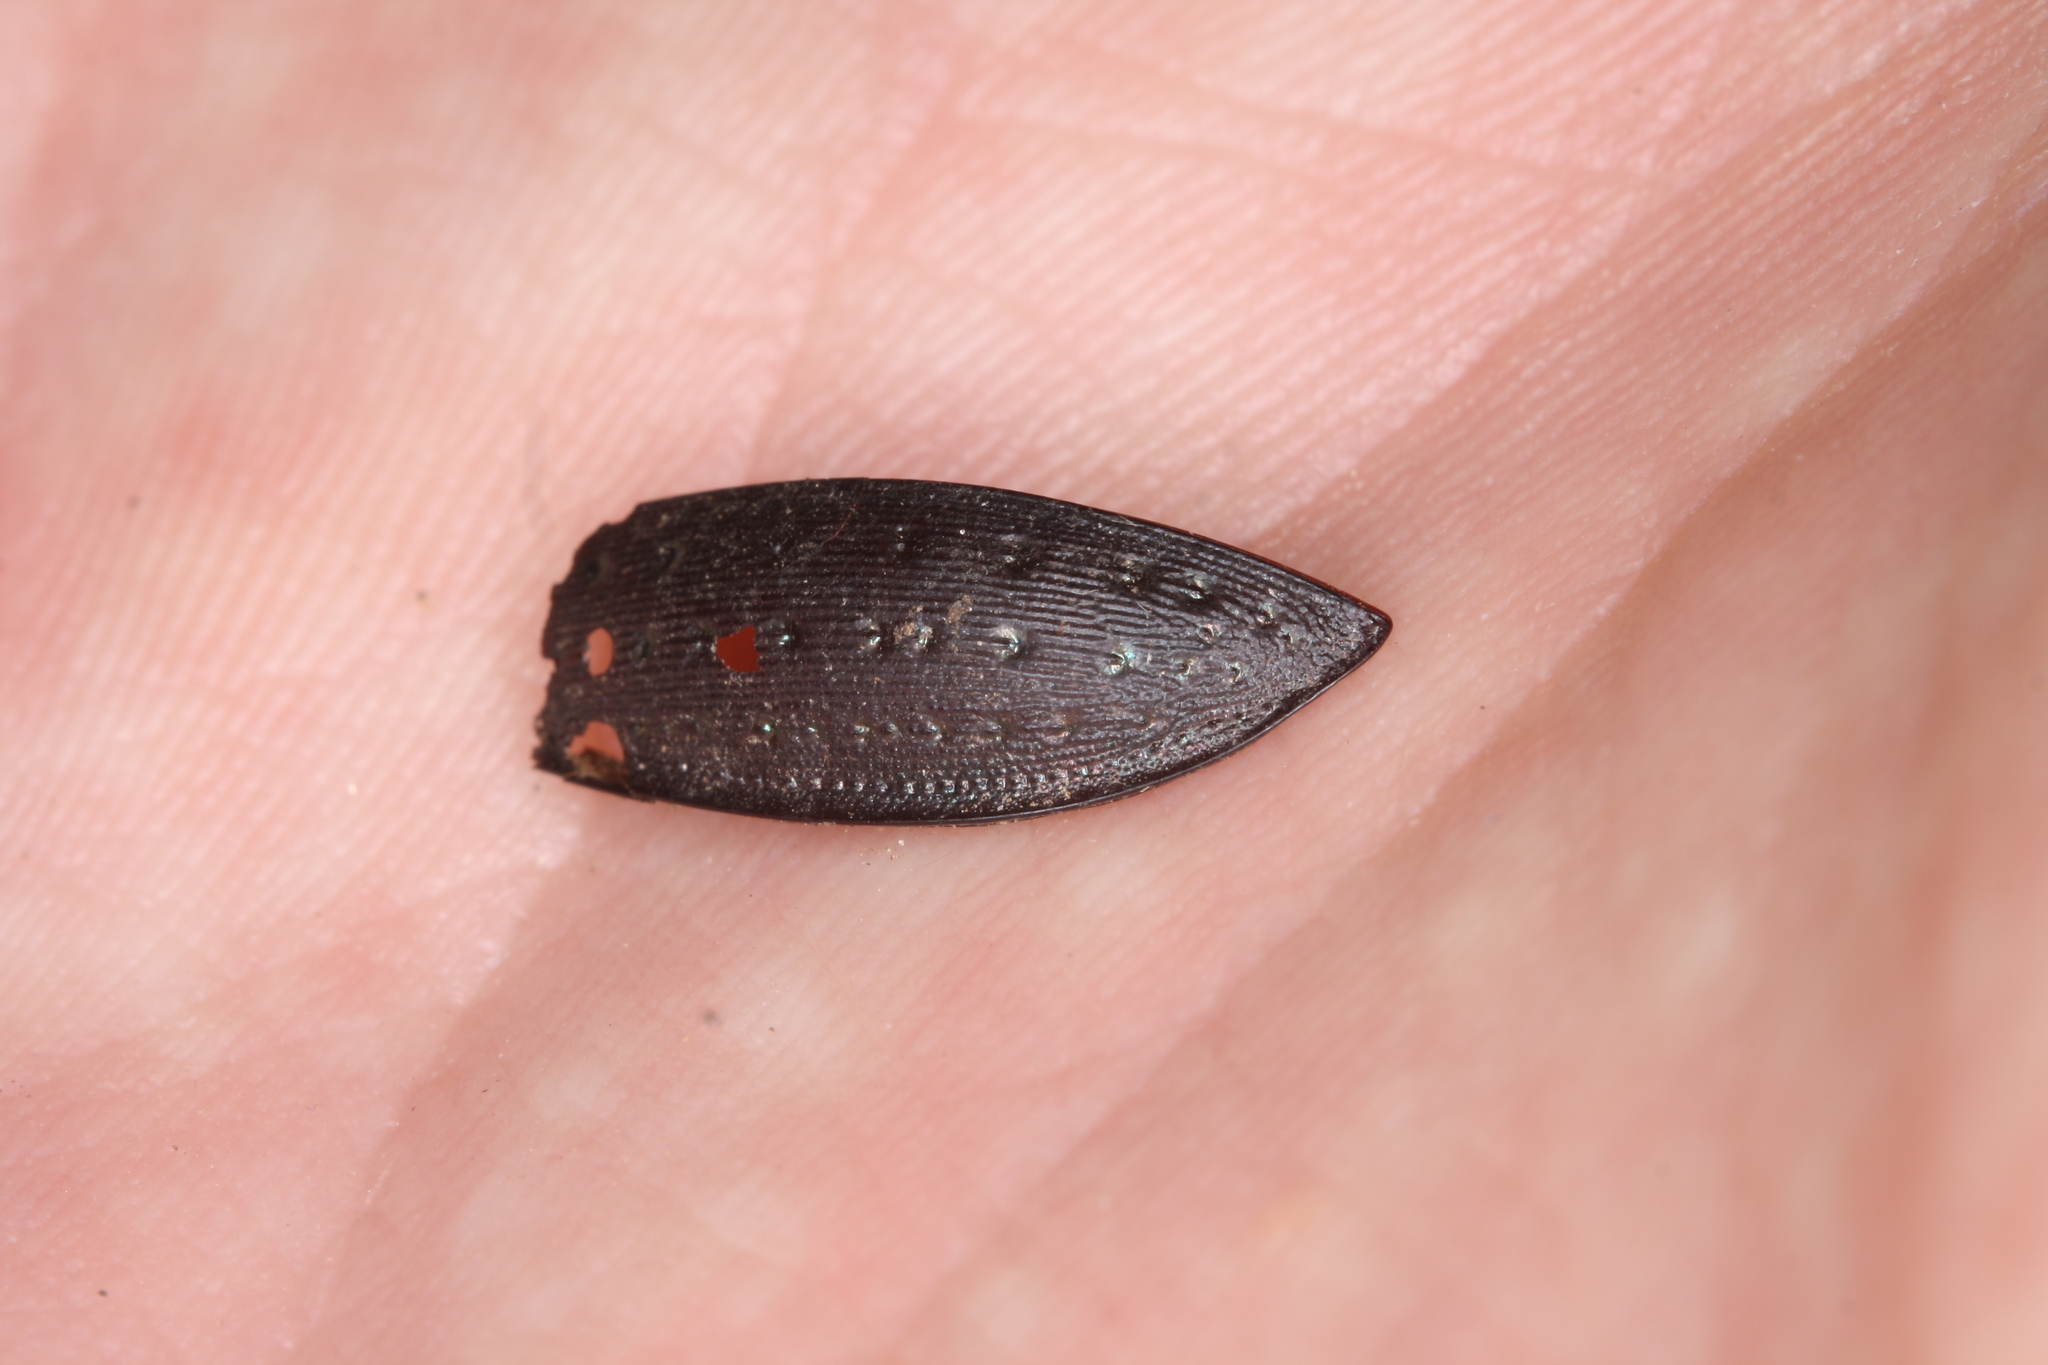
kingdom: Animalia
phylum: Arthropoda
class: Insecta
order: Coleoptera
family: Carabidae
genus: Carabus
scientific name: Carabus hortensis
